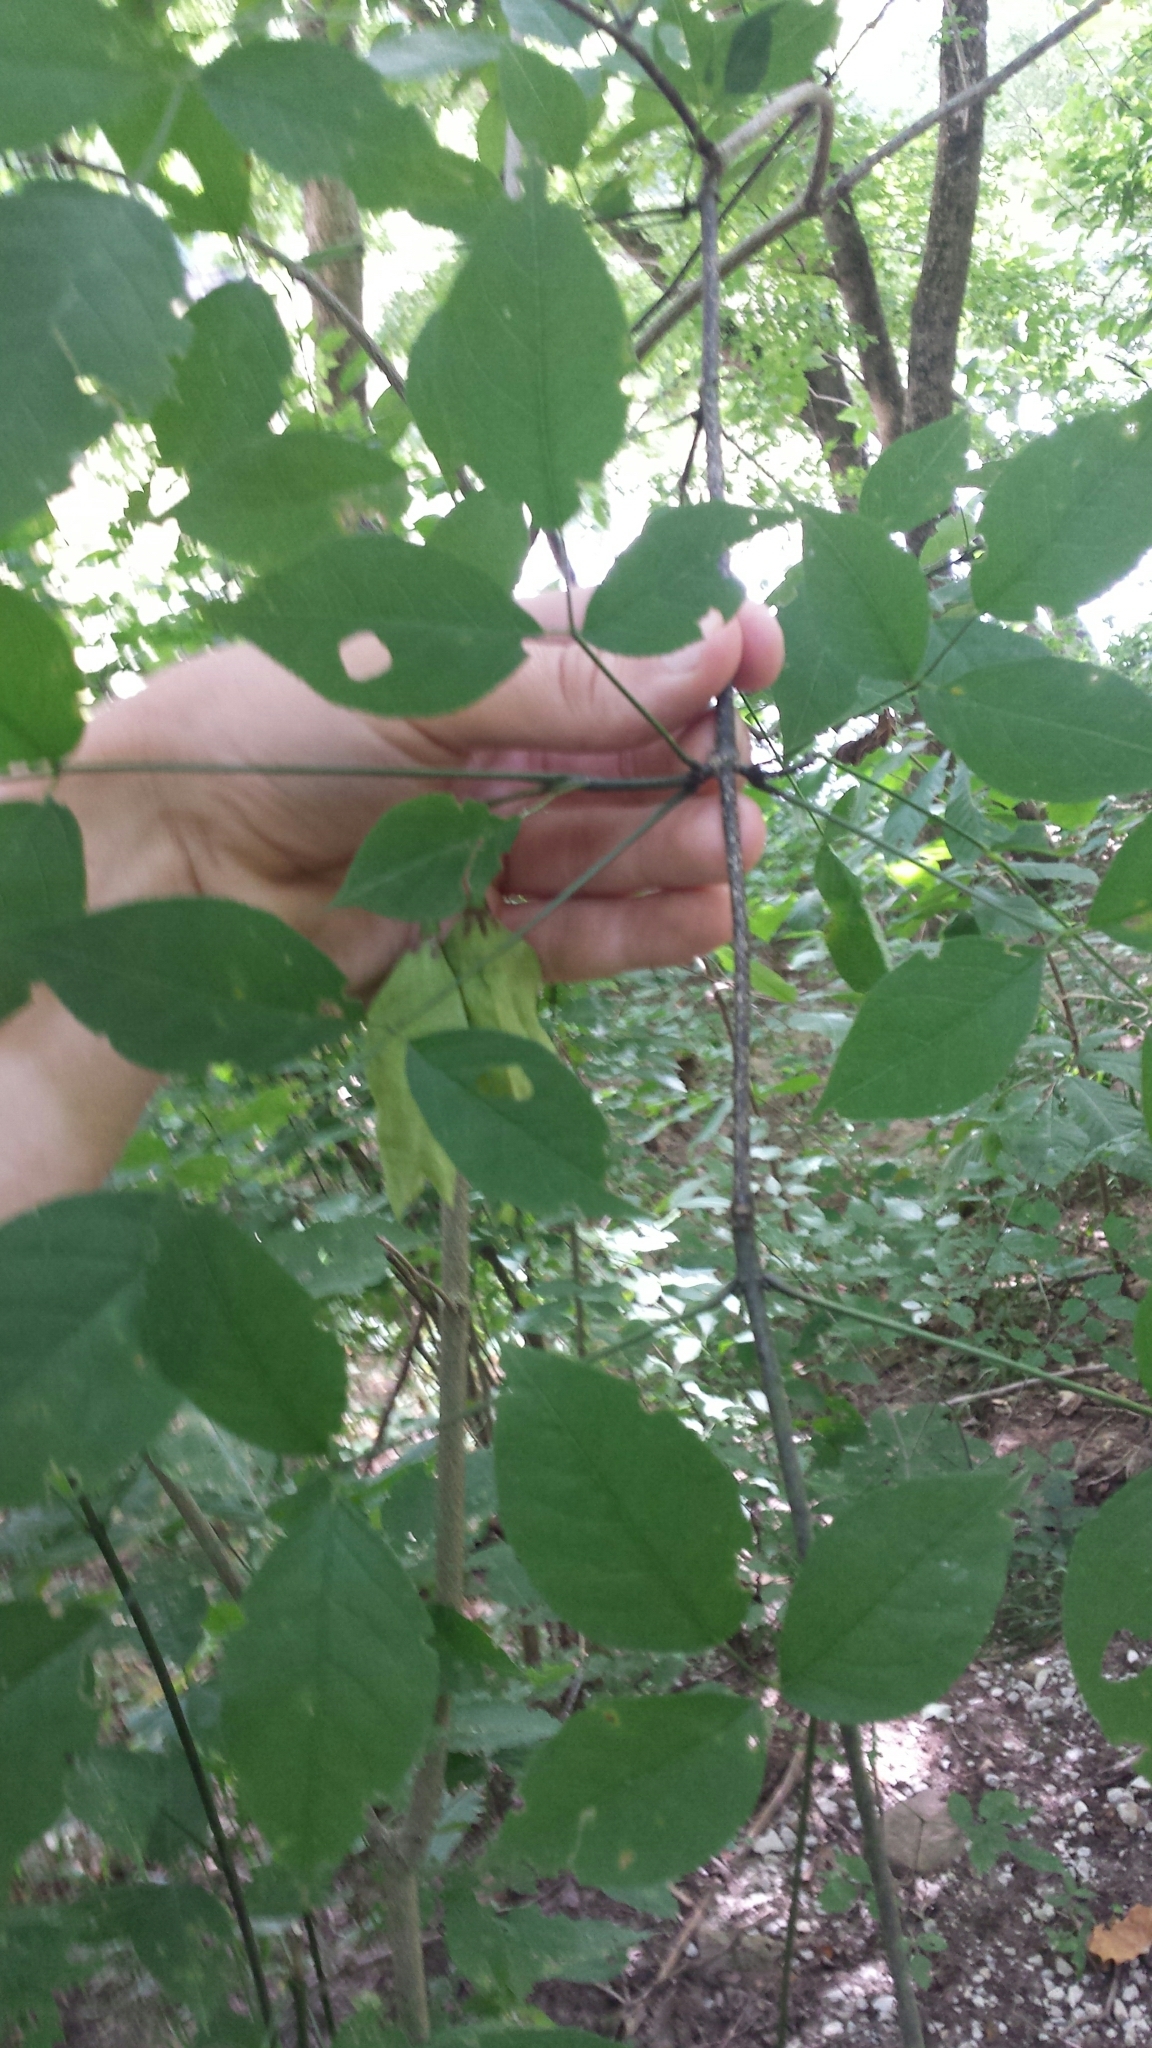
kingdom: Plantae
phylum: Tracheophyta
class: Magnoliopsida
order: Crossosomatales
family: Staphyleaceae
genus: Staphylea
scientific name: Staphylea trifolia
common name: American bladdernut
